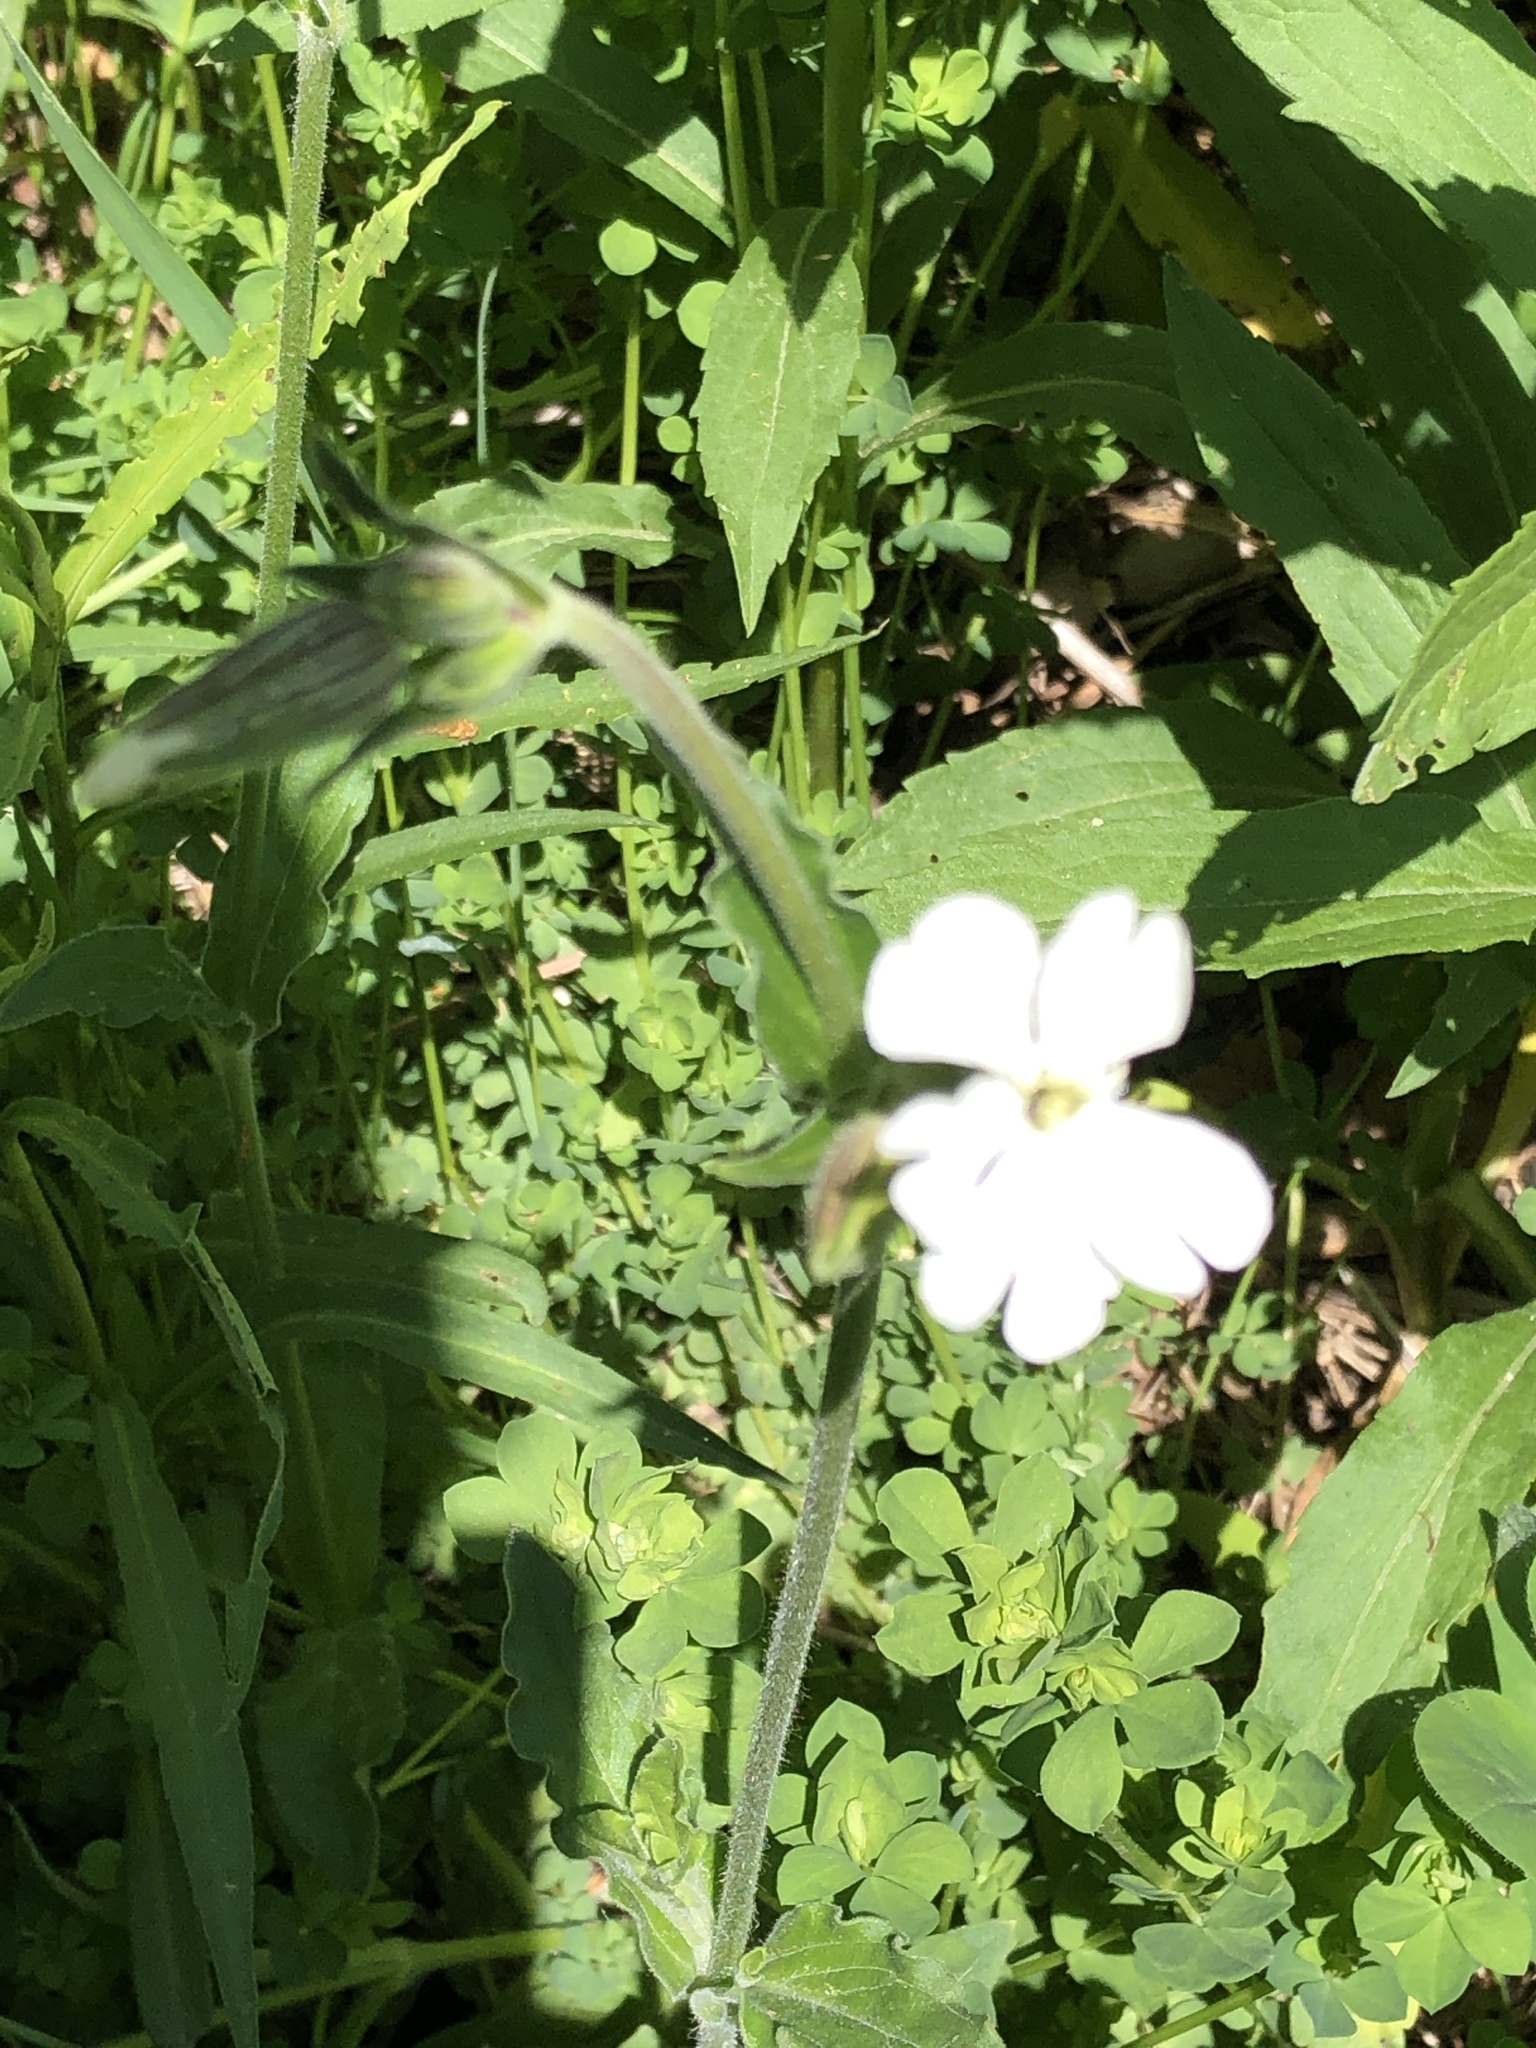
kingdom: Plantae
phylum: Tracheophyta
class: Magnoliopsida
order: Caryophyllales
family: Caryophyllaceae
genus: Silene
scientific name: Silene latifolia
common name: White campion
